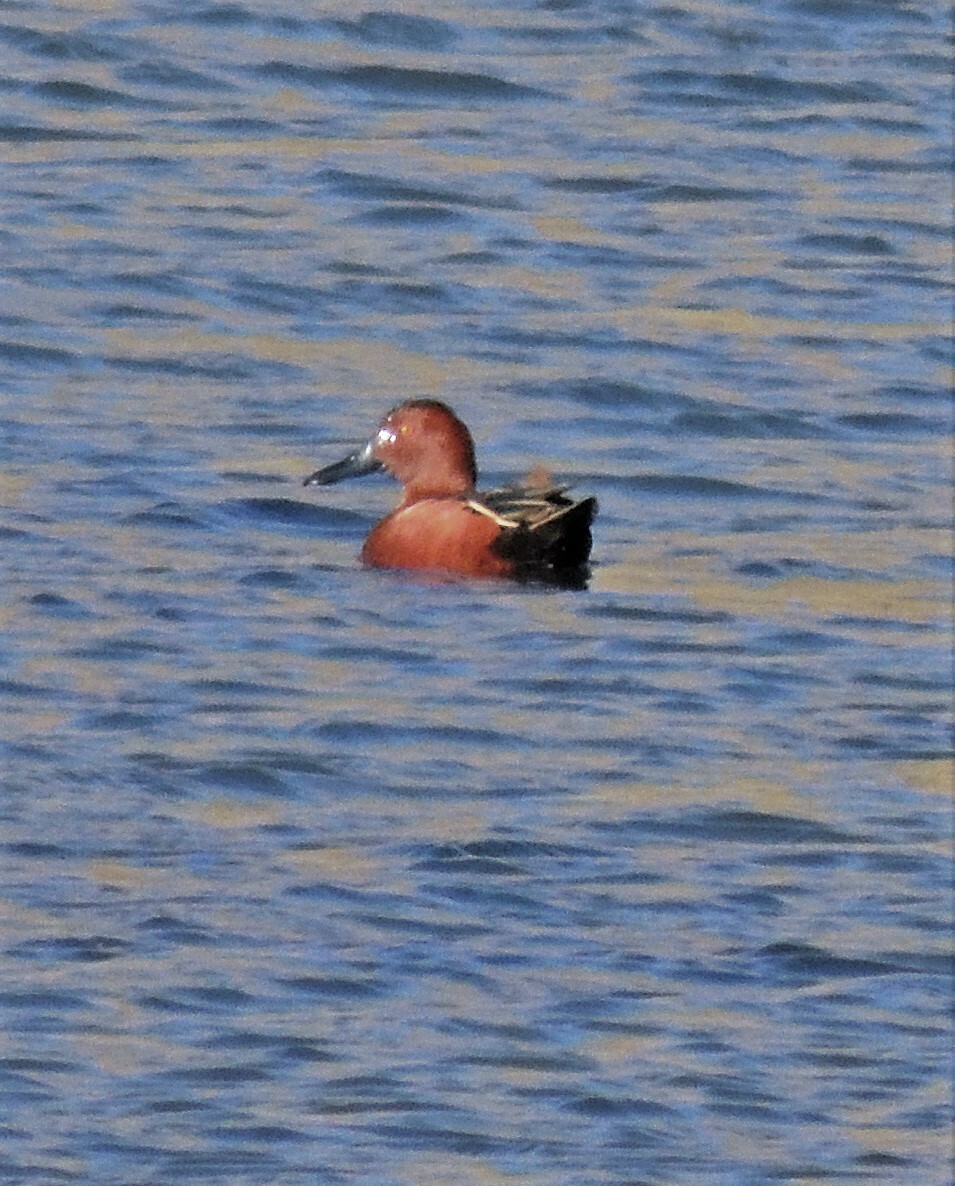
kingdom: Animalia
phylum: Chordata
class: Aves
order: Anseriformes
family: Anatidae
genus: Spatula
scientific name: Spatula cyanoptera
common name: Cinnamon teal
